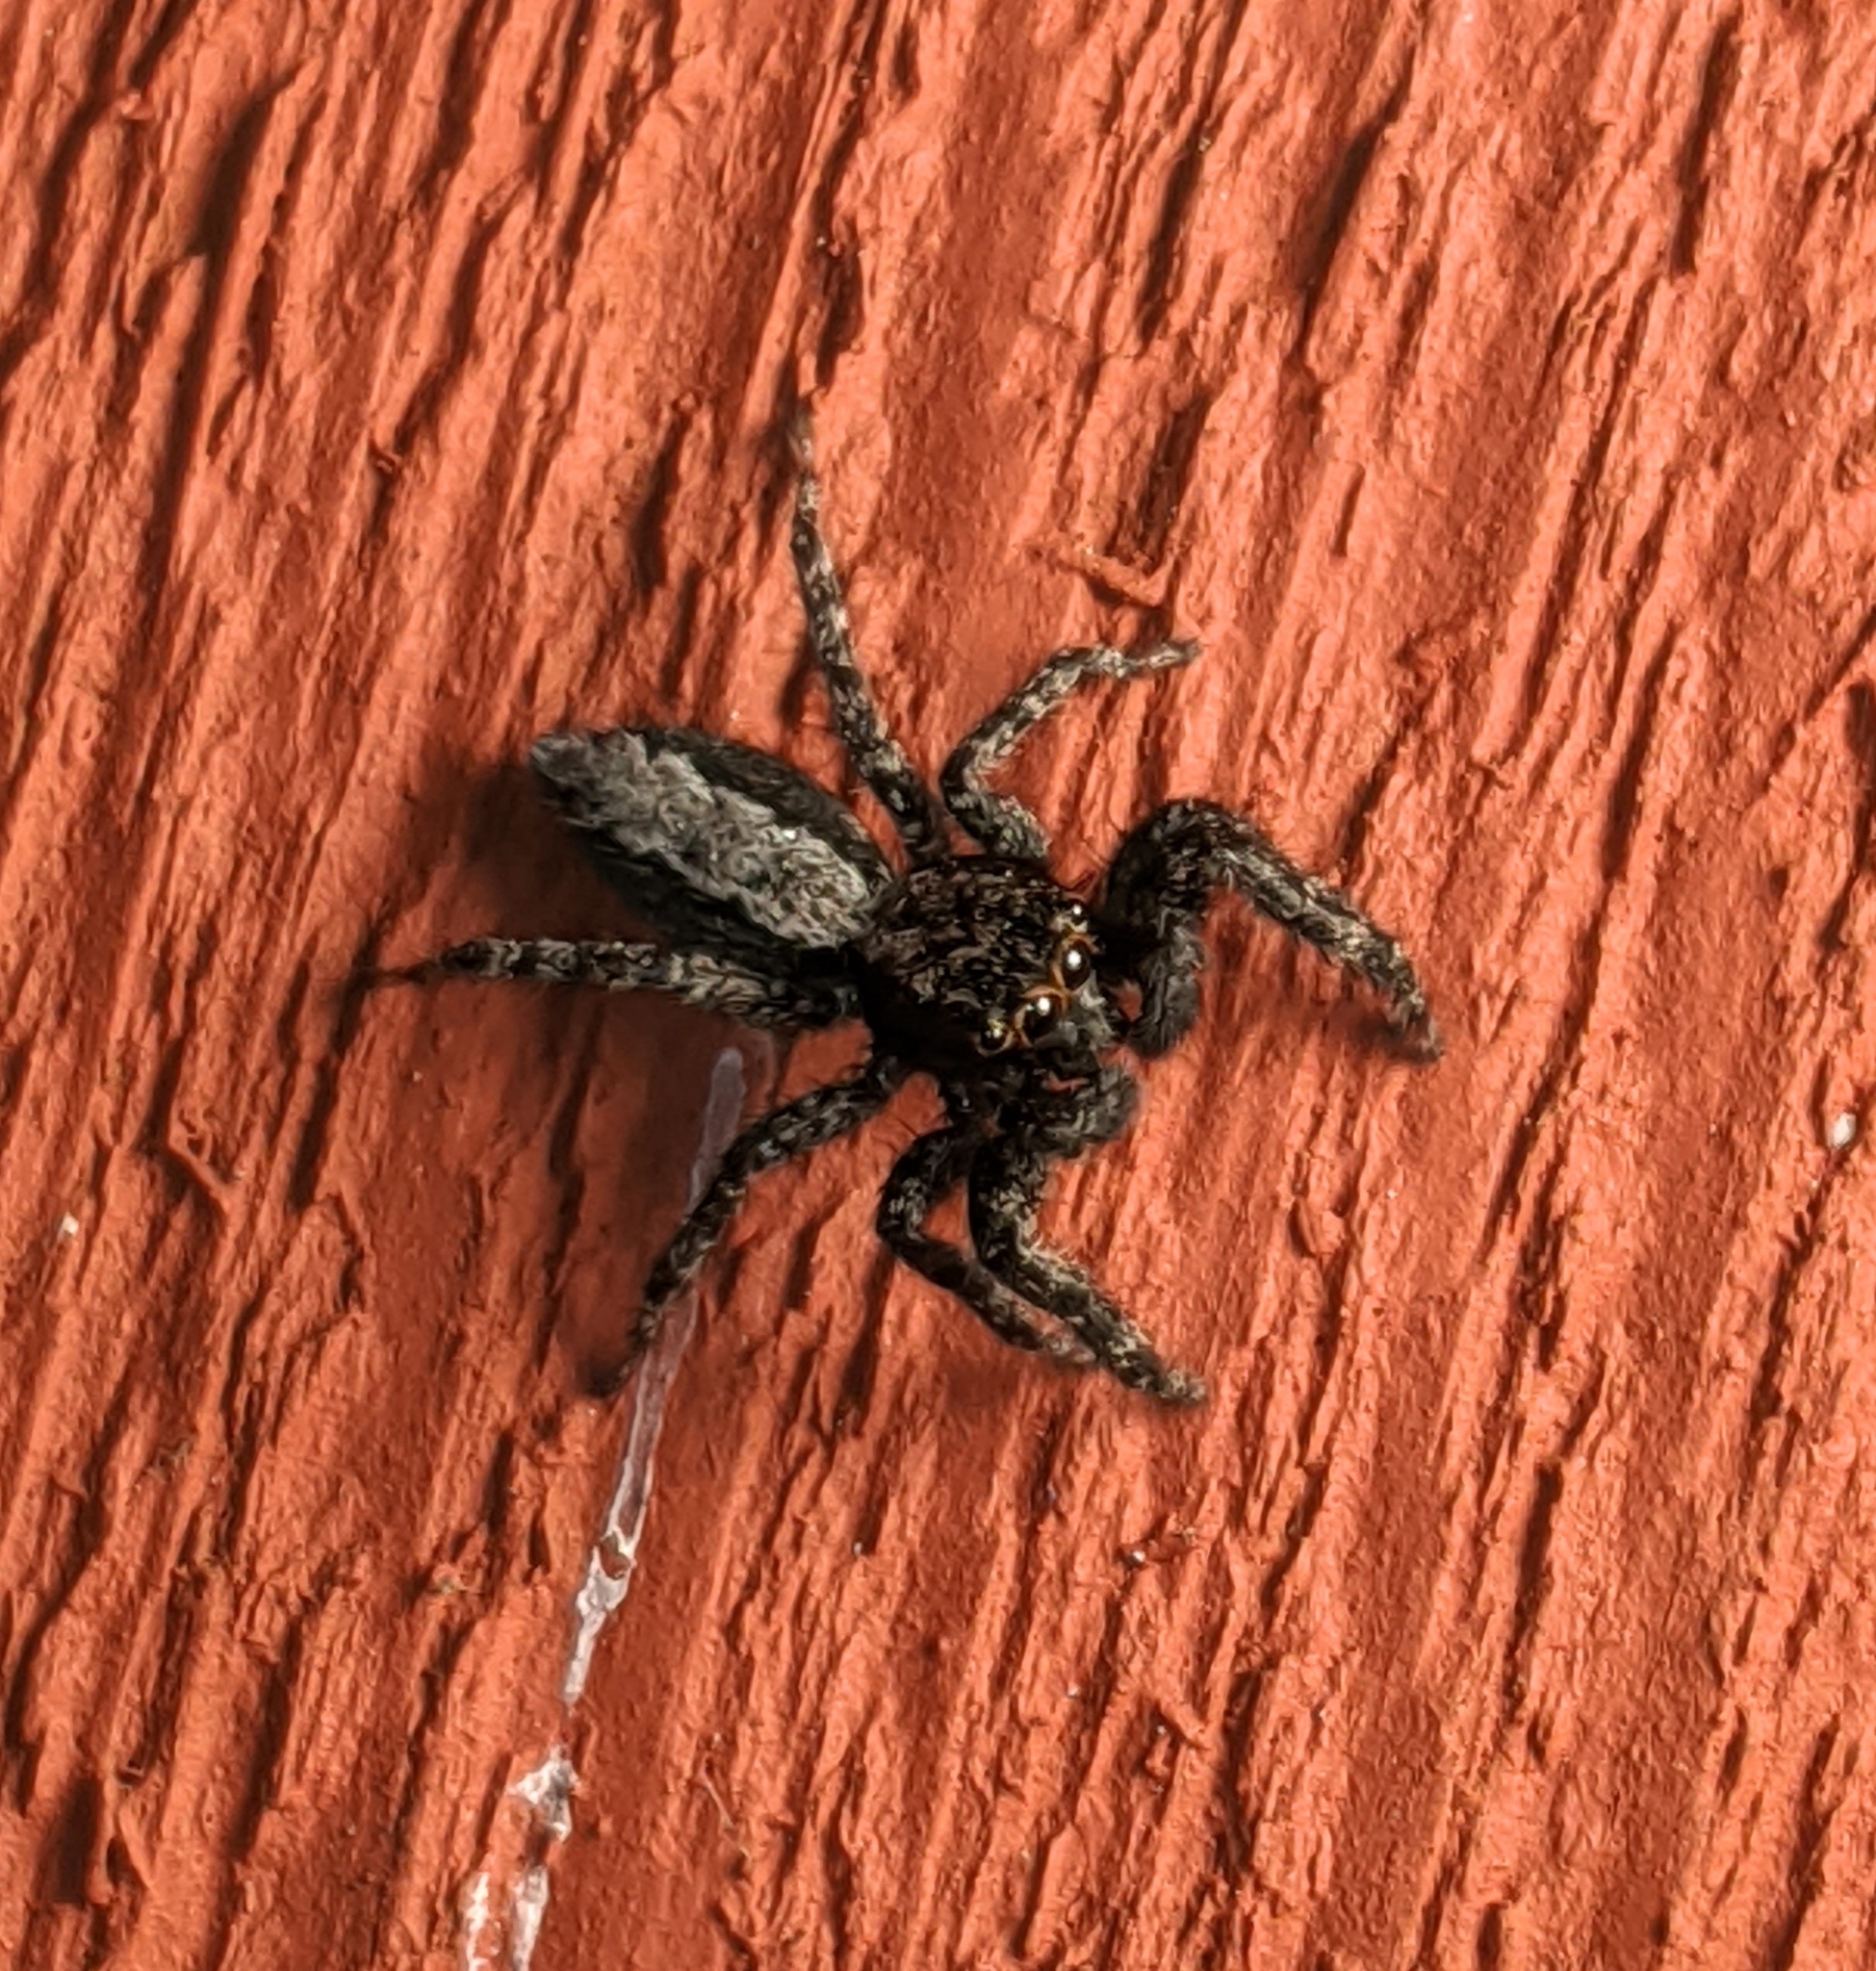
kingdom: Animalia
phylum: Arthropoda
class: Arachnida
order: Araneae
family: Salticidae
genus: Platycryptus
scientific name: Platycryptus californicus
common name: Jumping spiders
